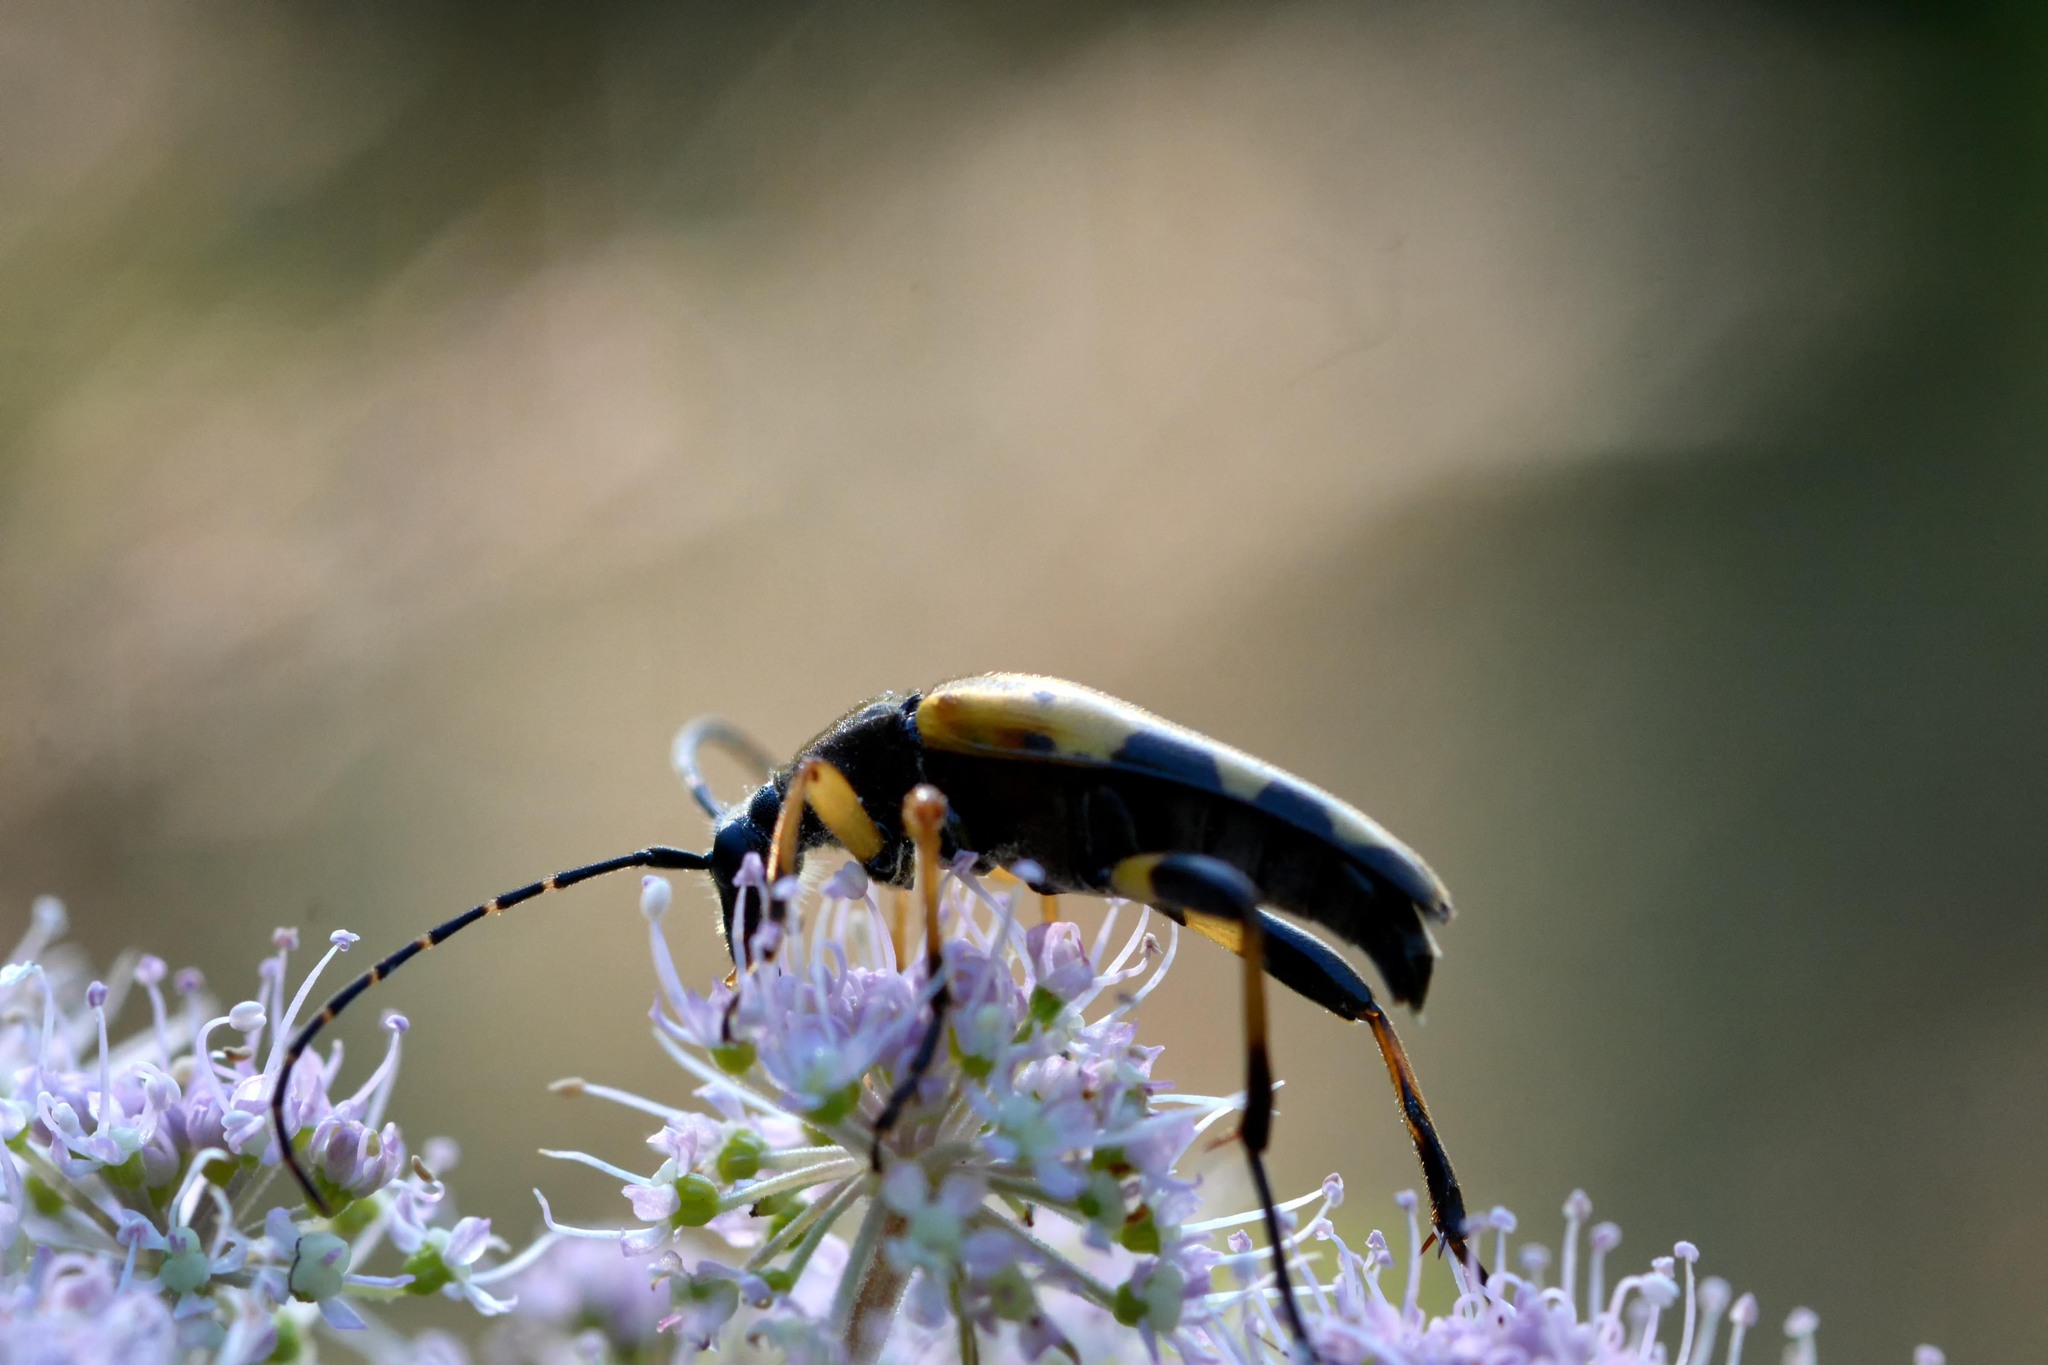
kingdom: Animalia
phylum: Arthropoda
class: Insecta
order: Coleoptera
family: Cerambycidae
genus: Rutpela
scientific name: Rutpela maculata
